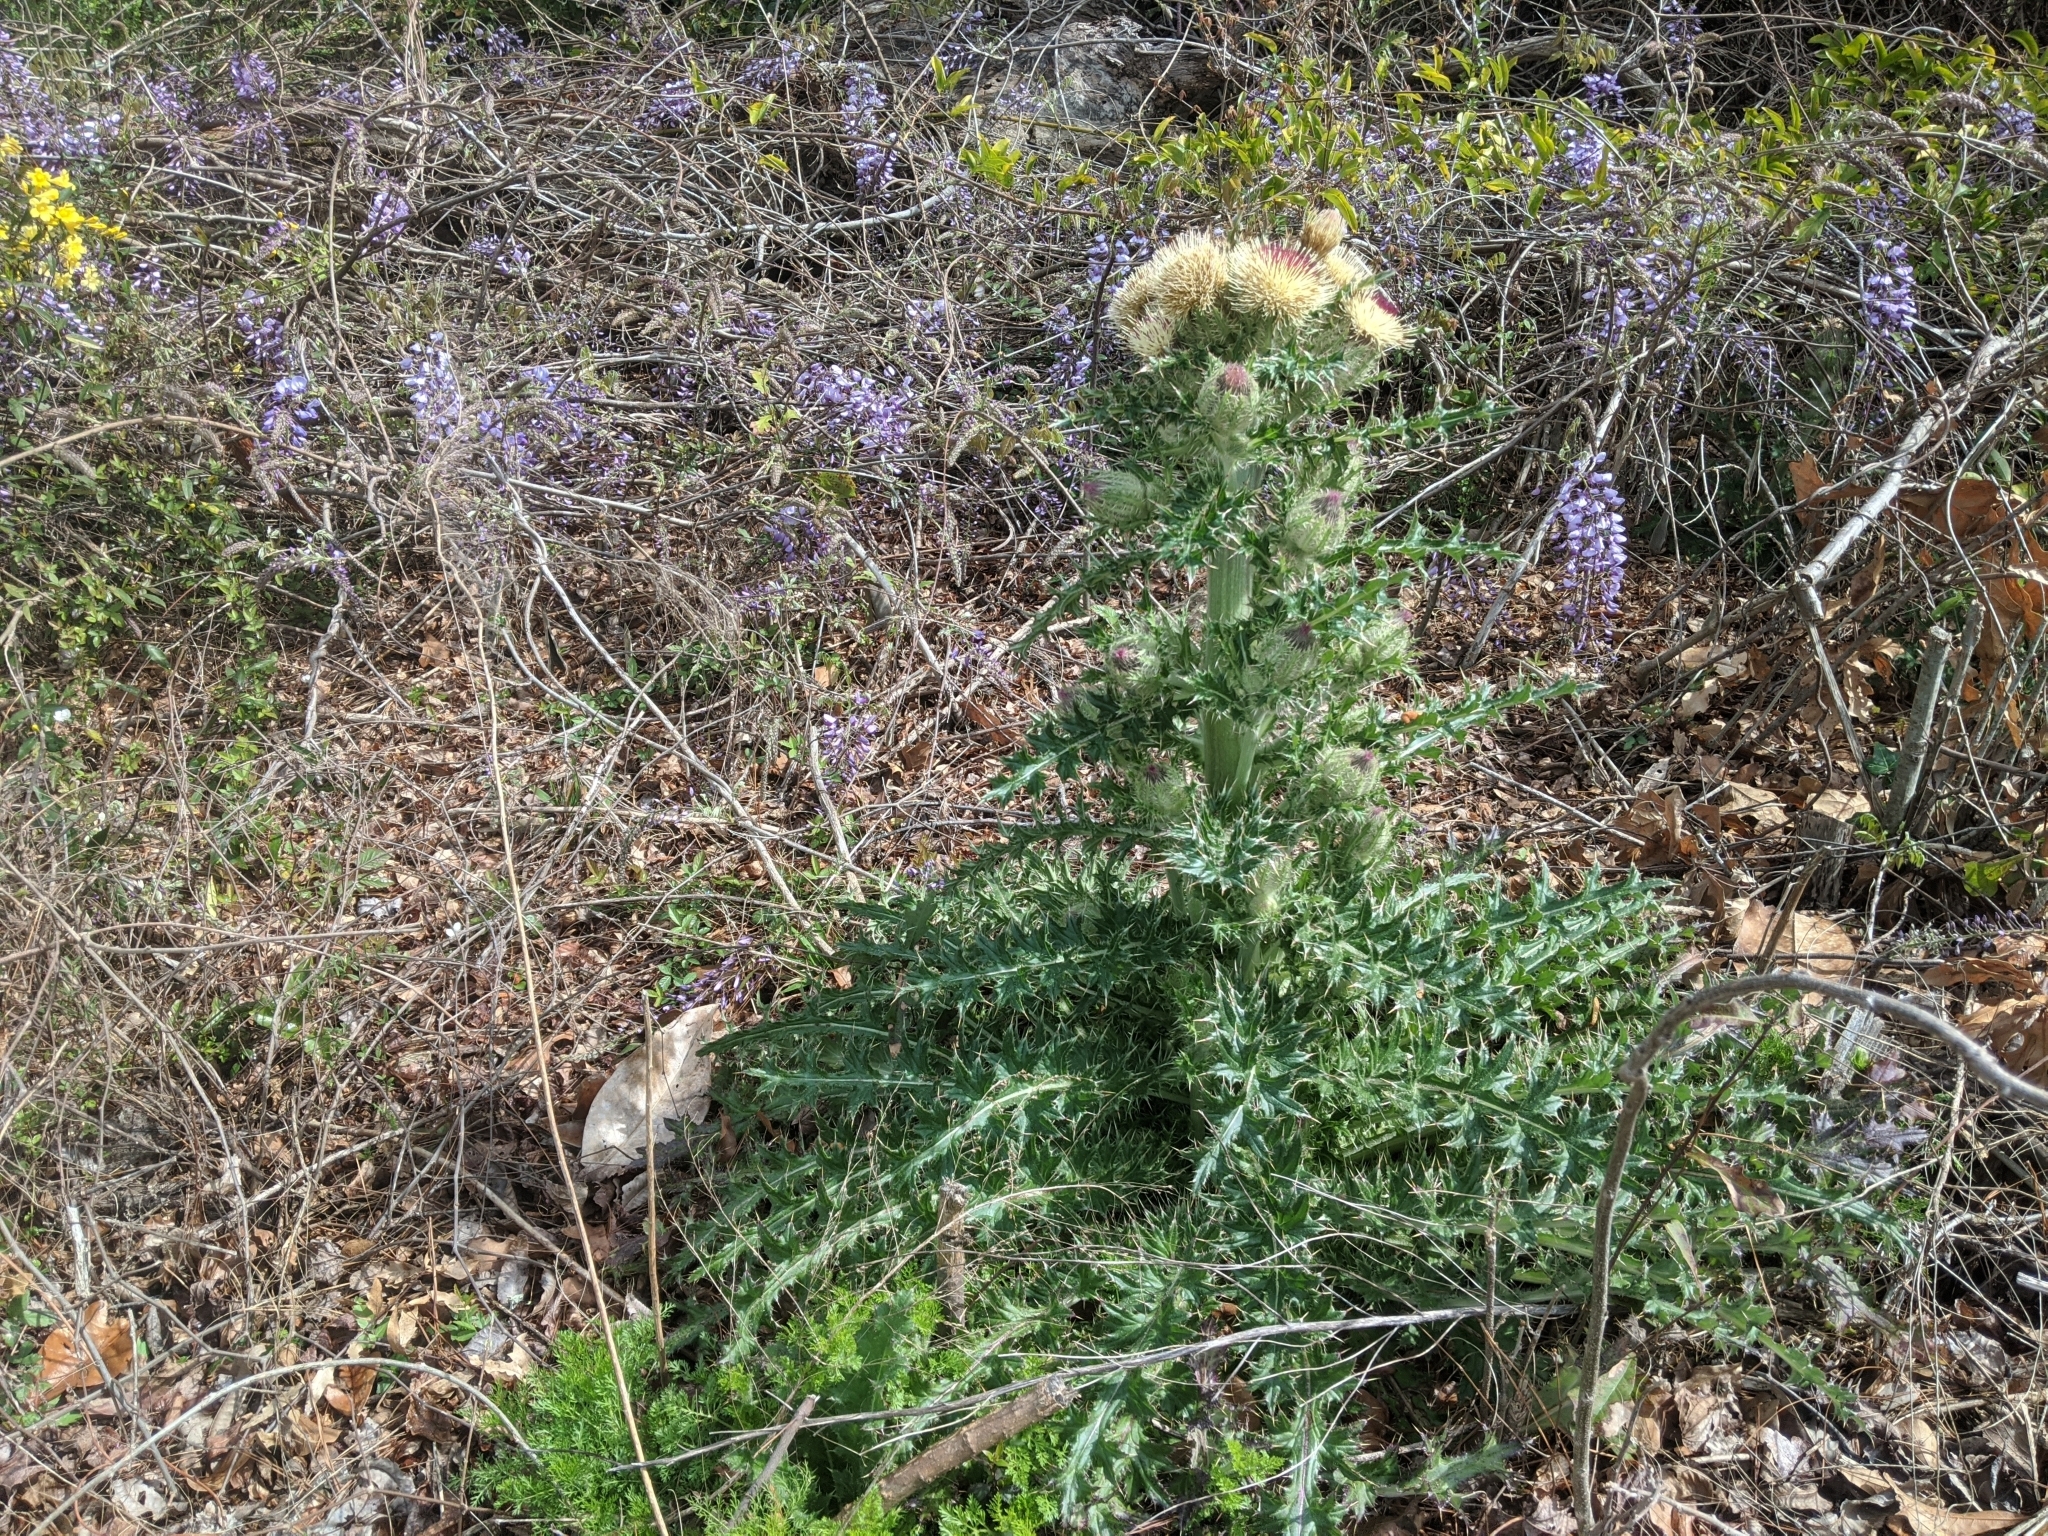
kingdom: Plantae
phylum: Tracheophyta
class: Magnoliopsida
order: Asterales
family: Asteraceae
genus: Cirsium
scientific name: Cirsium horridulum
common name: Bristly thistle
